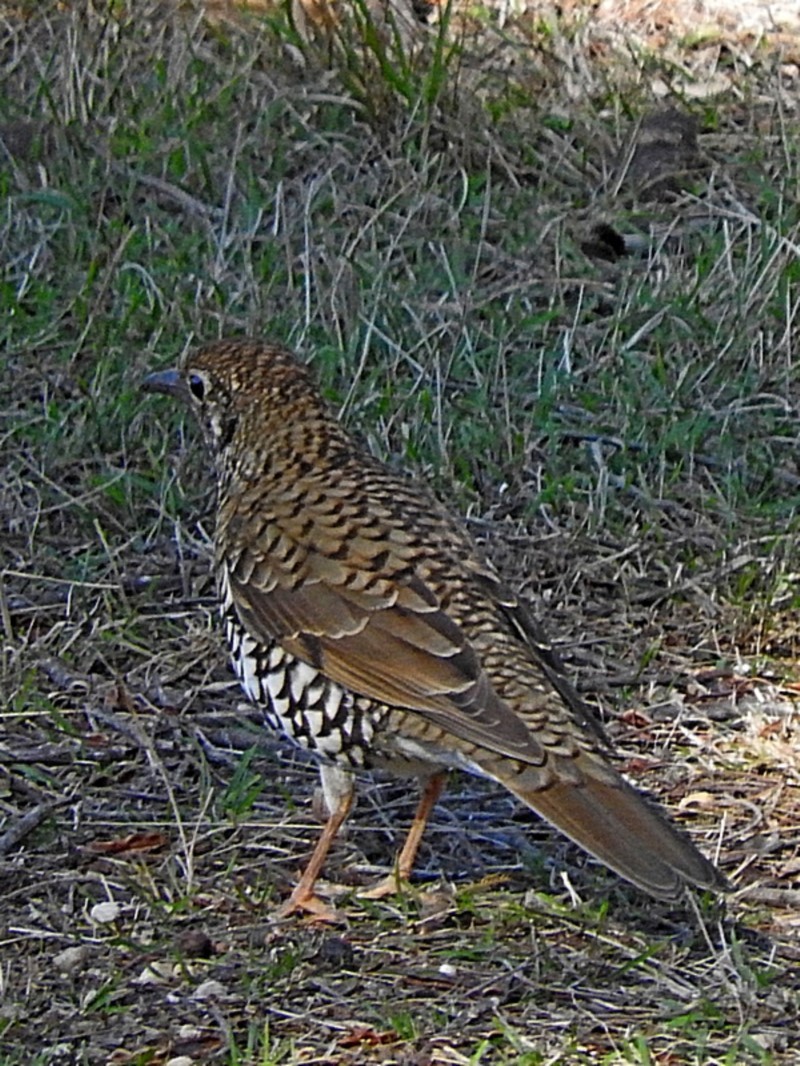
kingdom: Animalia
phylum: Chordata
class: Aves
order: Passeriformes
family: Turdidae
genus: Zoothera
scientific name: Zoothera lunulata
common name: Bassian thrush
